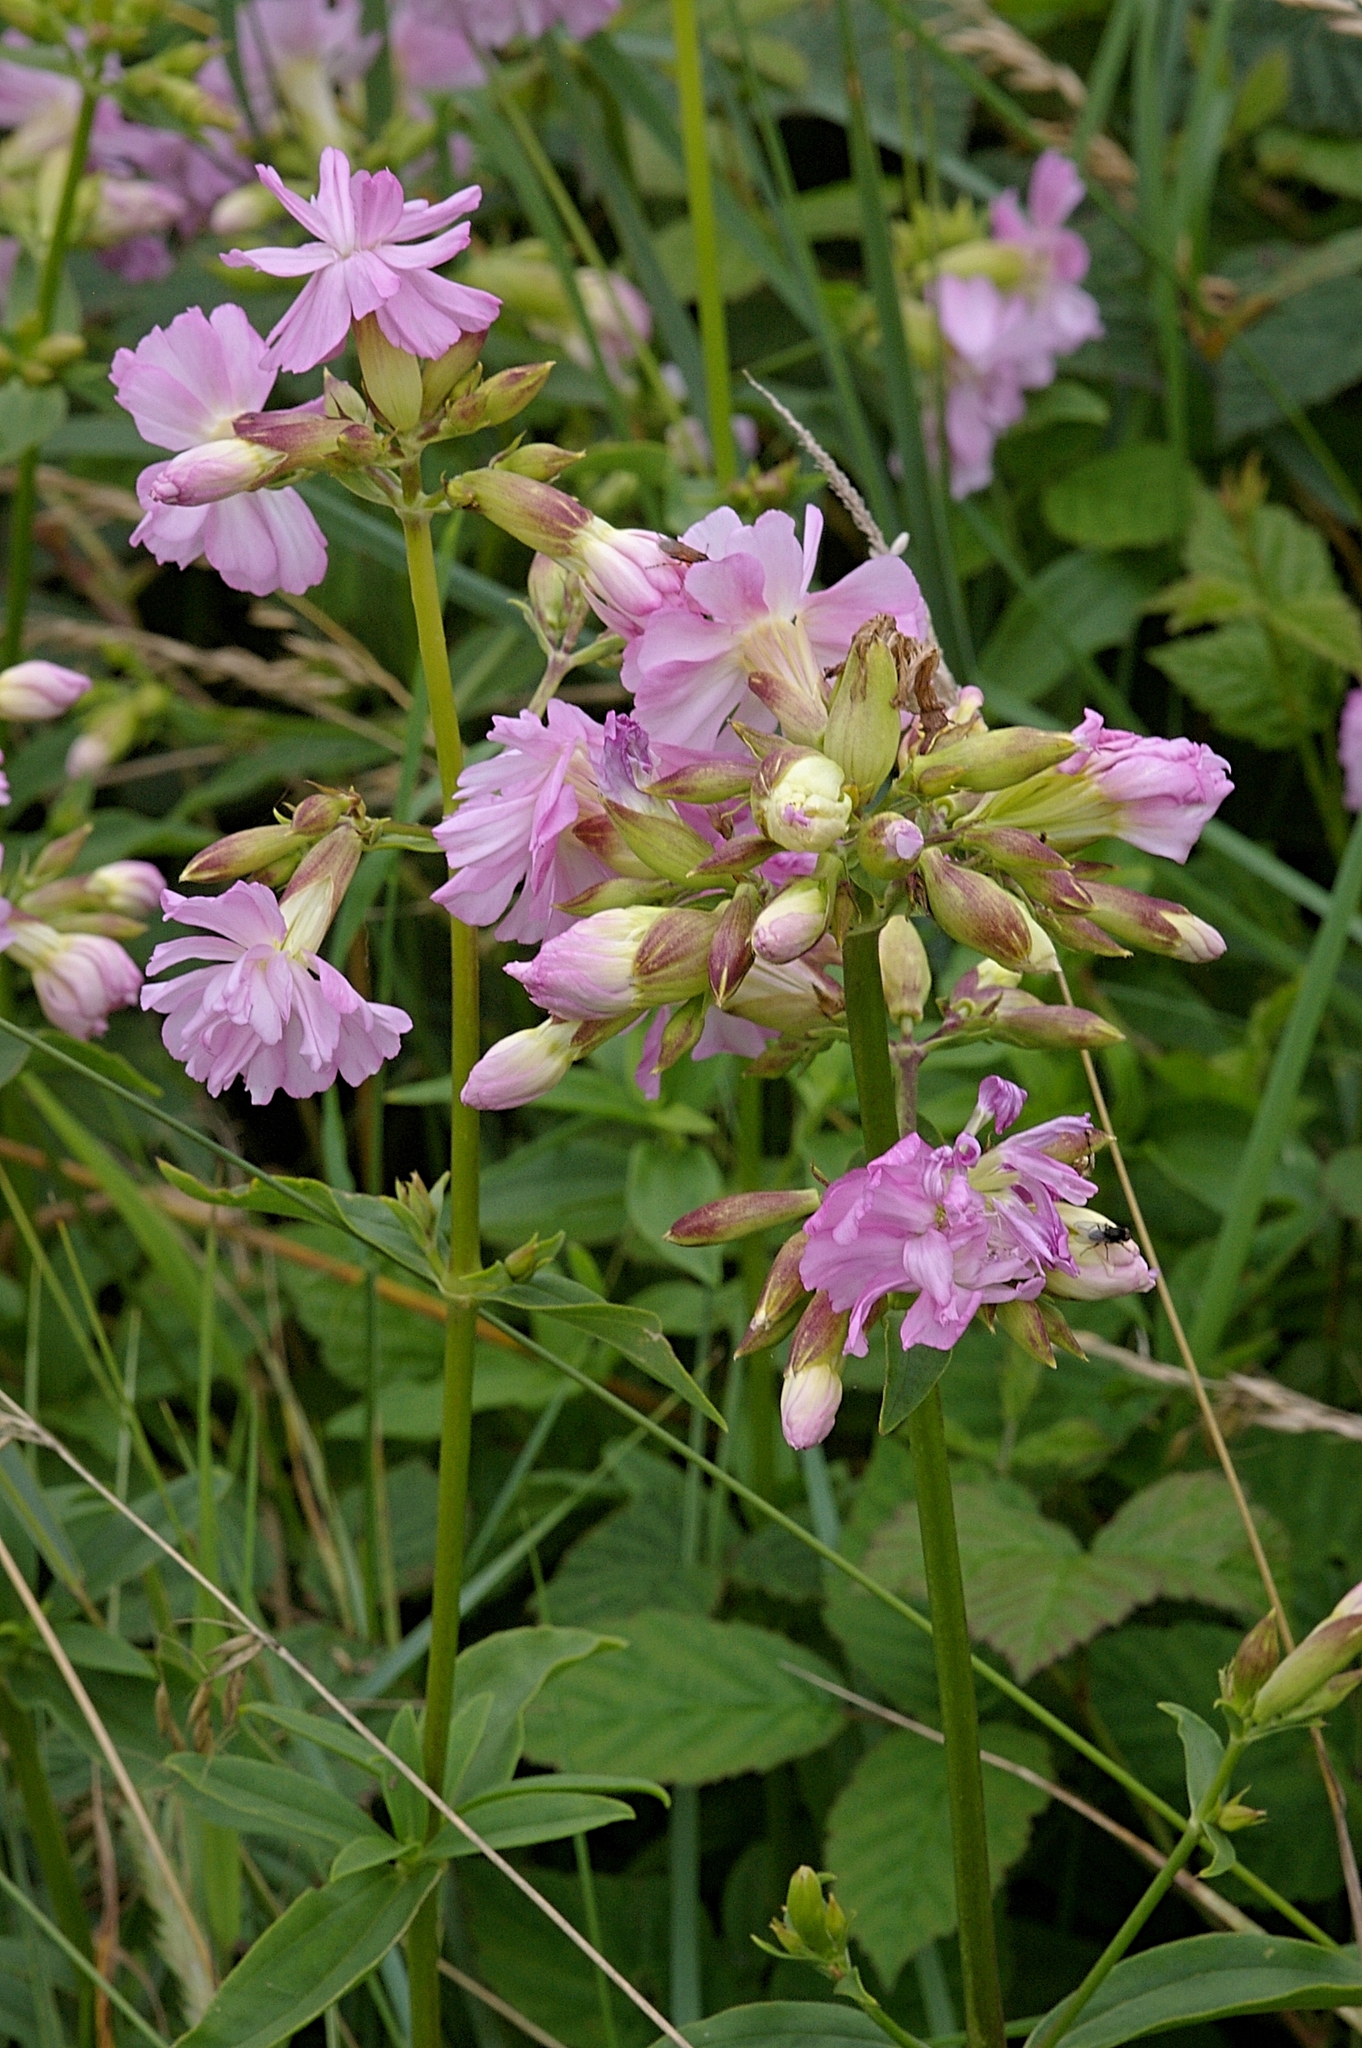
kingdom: Plantae
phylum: Tracheophyta
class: Magnoliopsida
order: Caryophyllales
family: Caryophyllaceae
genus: Saponaria
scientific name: Saponaria officinalis
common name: Soapwort
